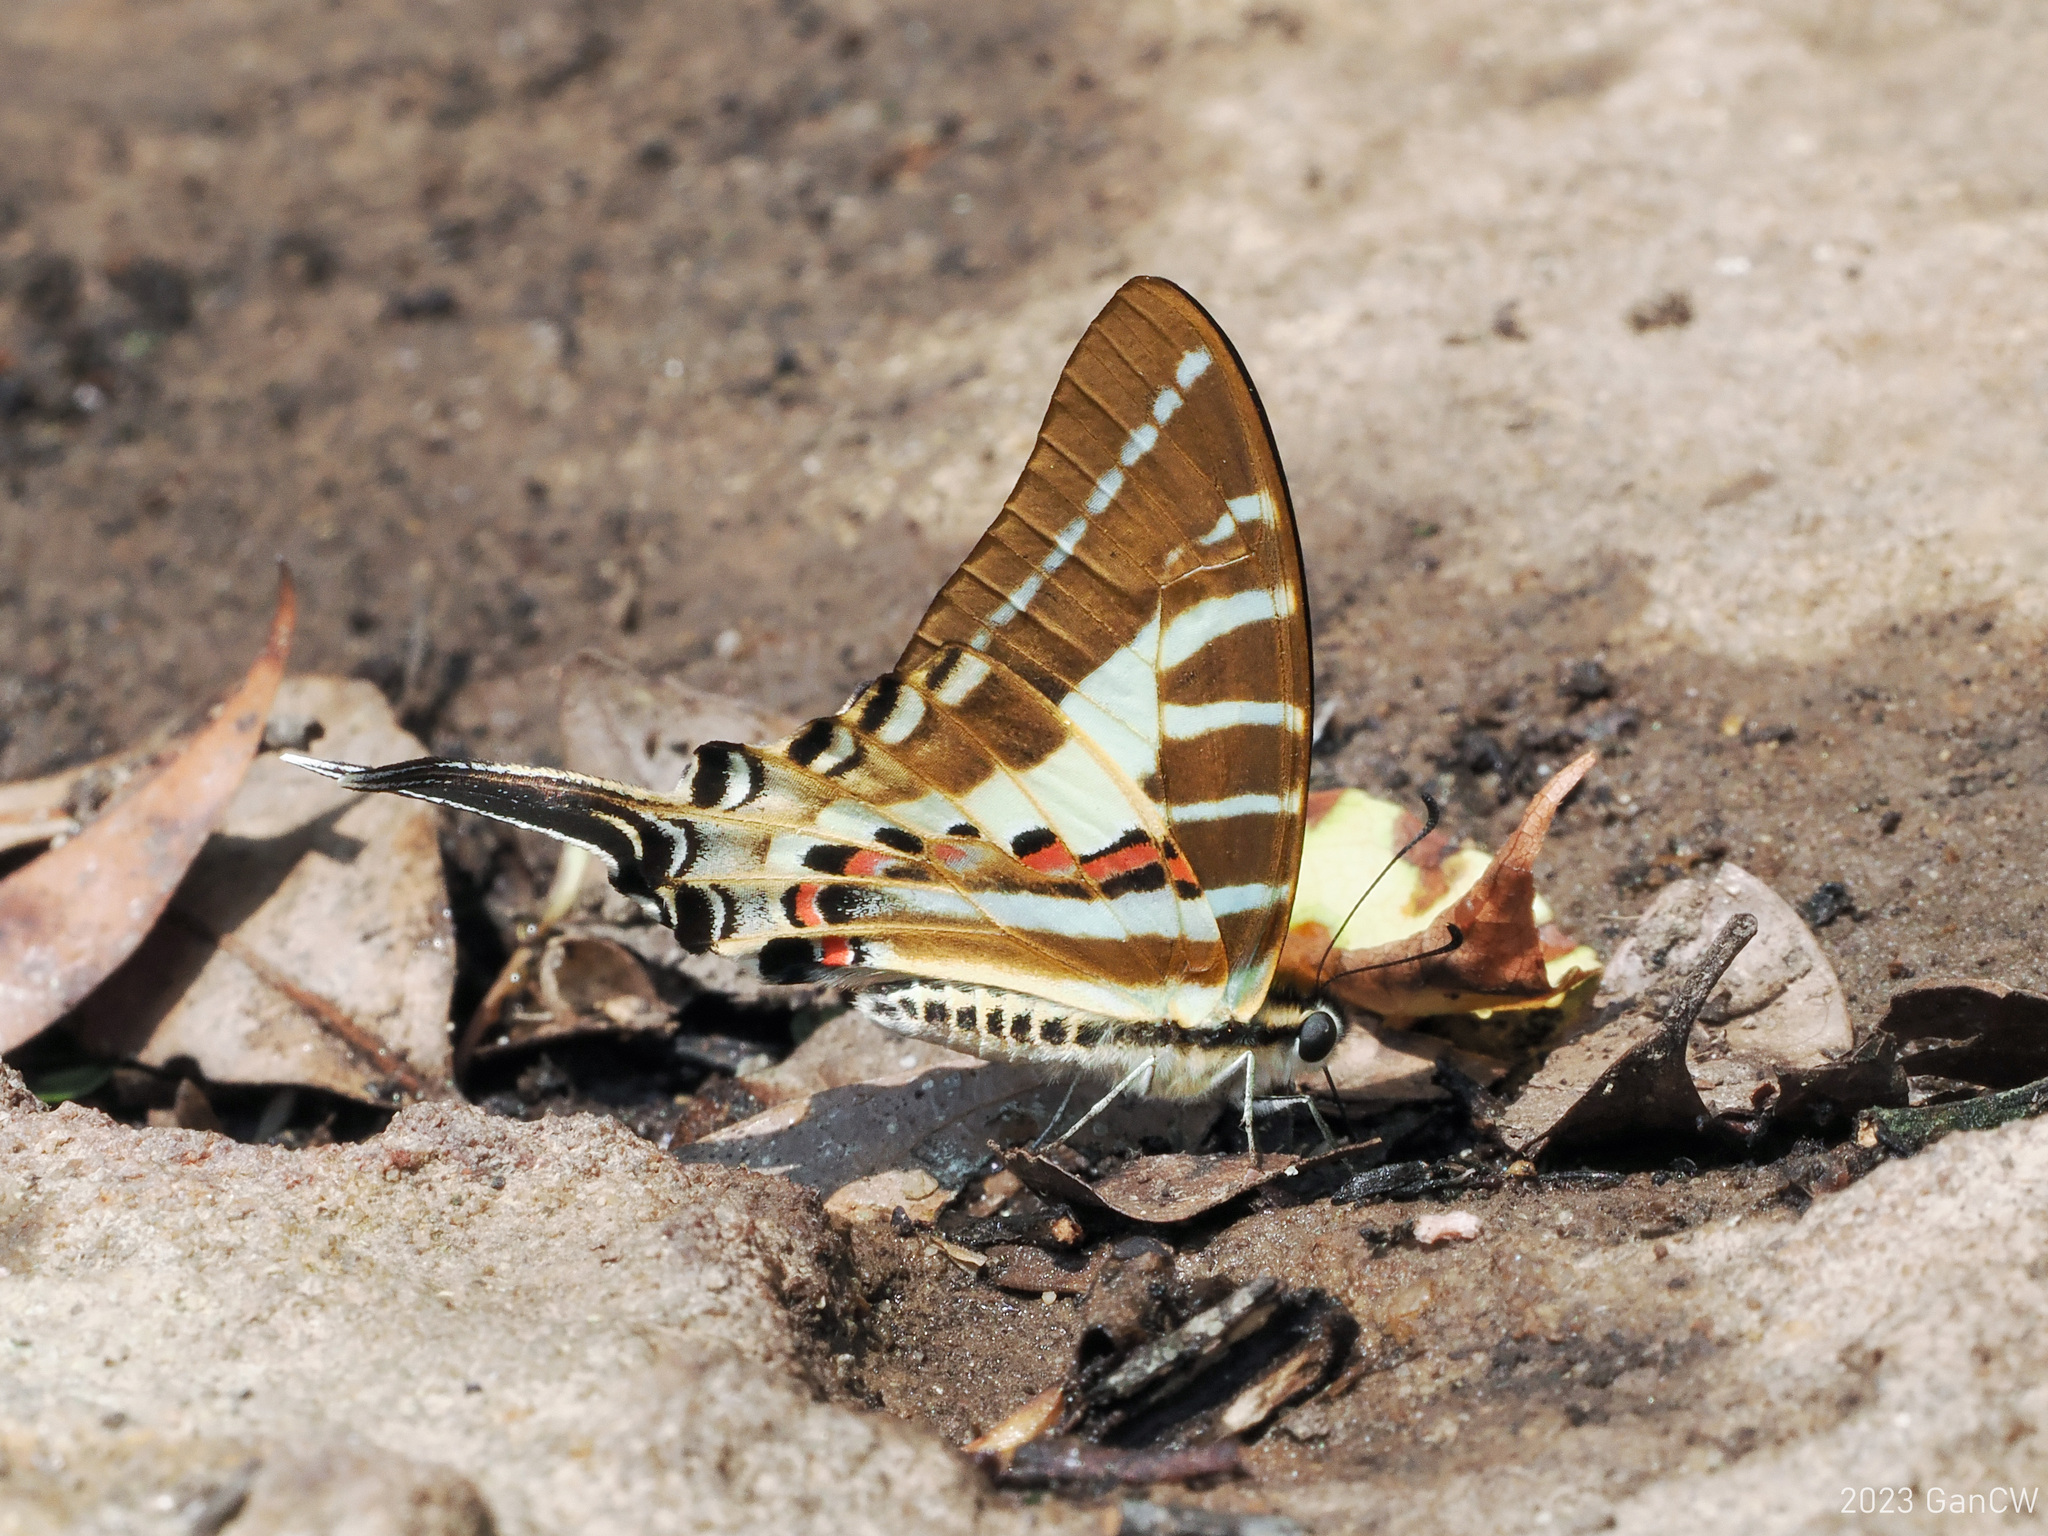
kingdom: Animalia
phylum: Arthropoda
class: Insecta
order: Lepidoptera
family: Papilionidae
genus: Graphium
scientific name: Graphium aristeus
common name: Chain swordtail
